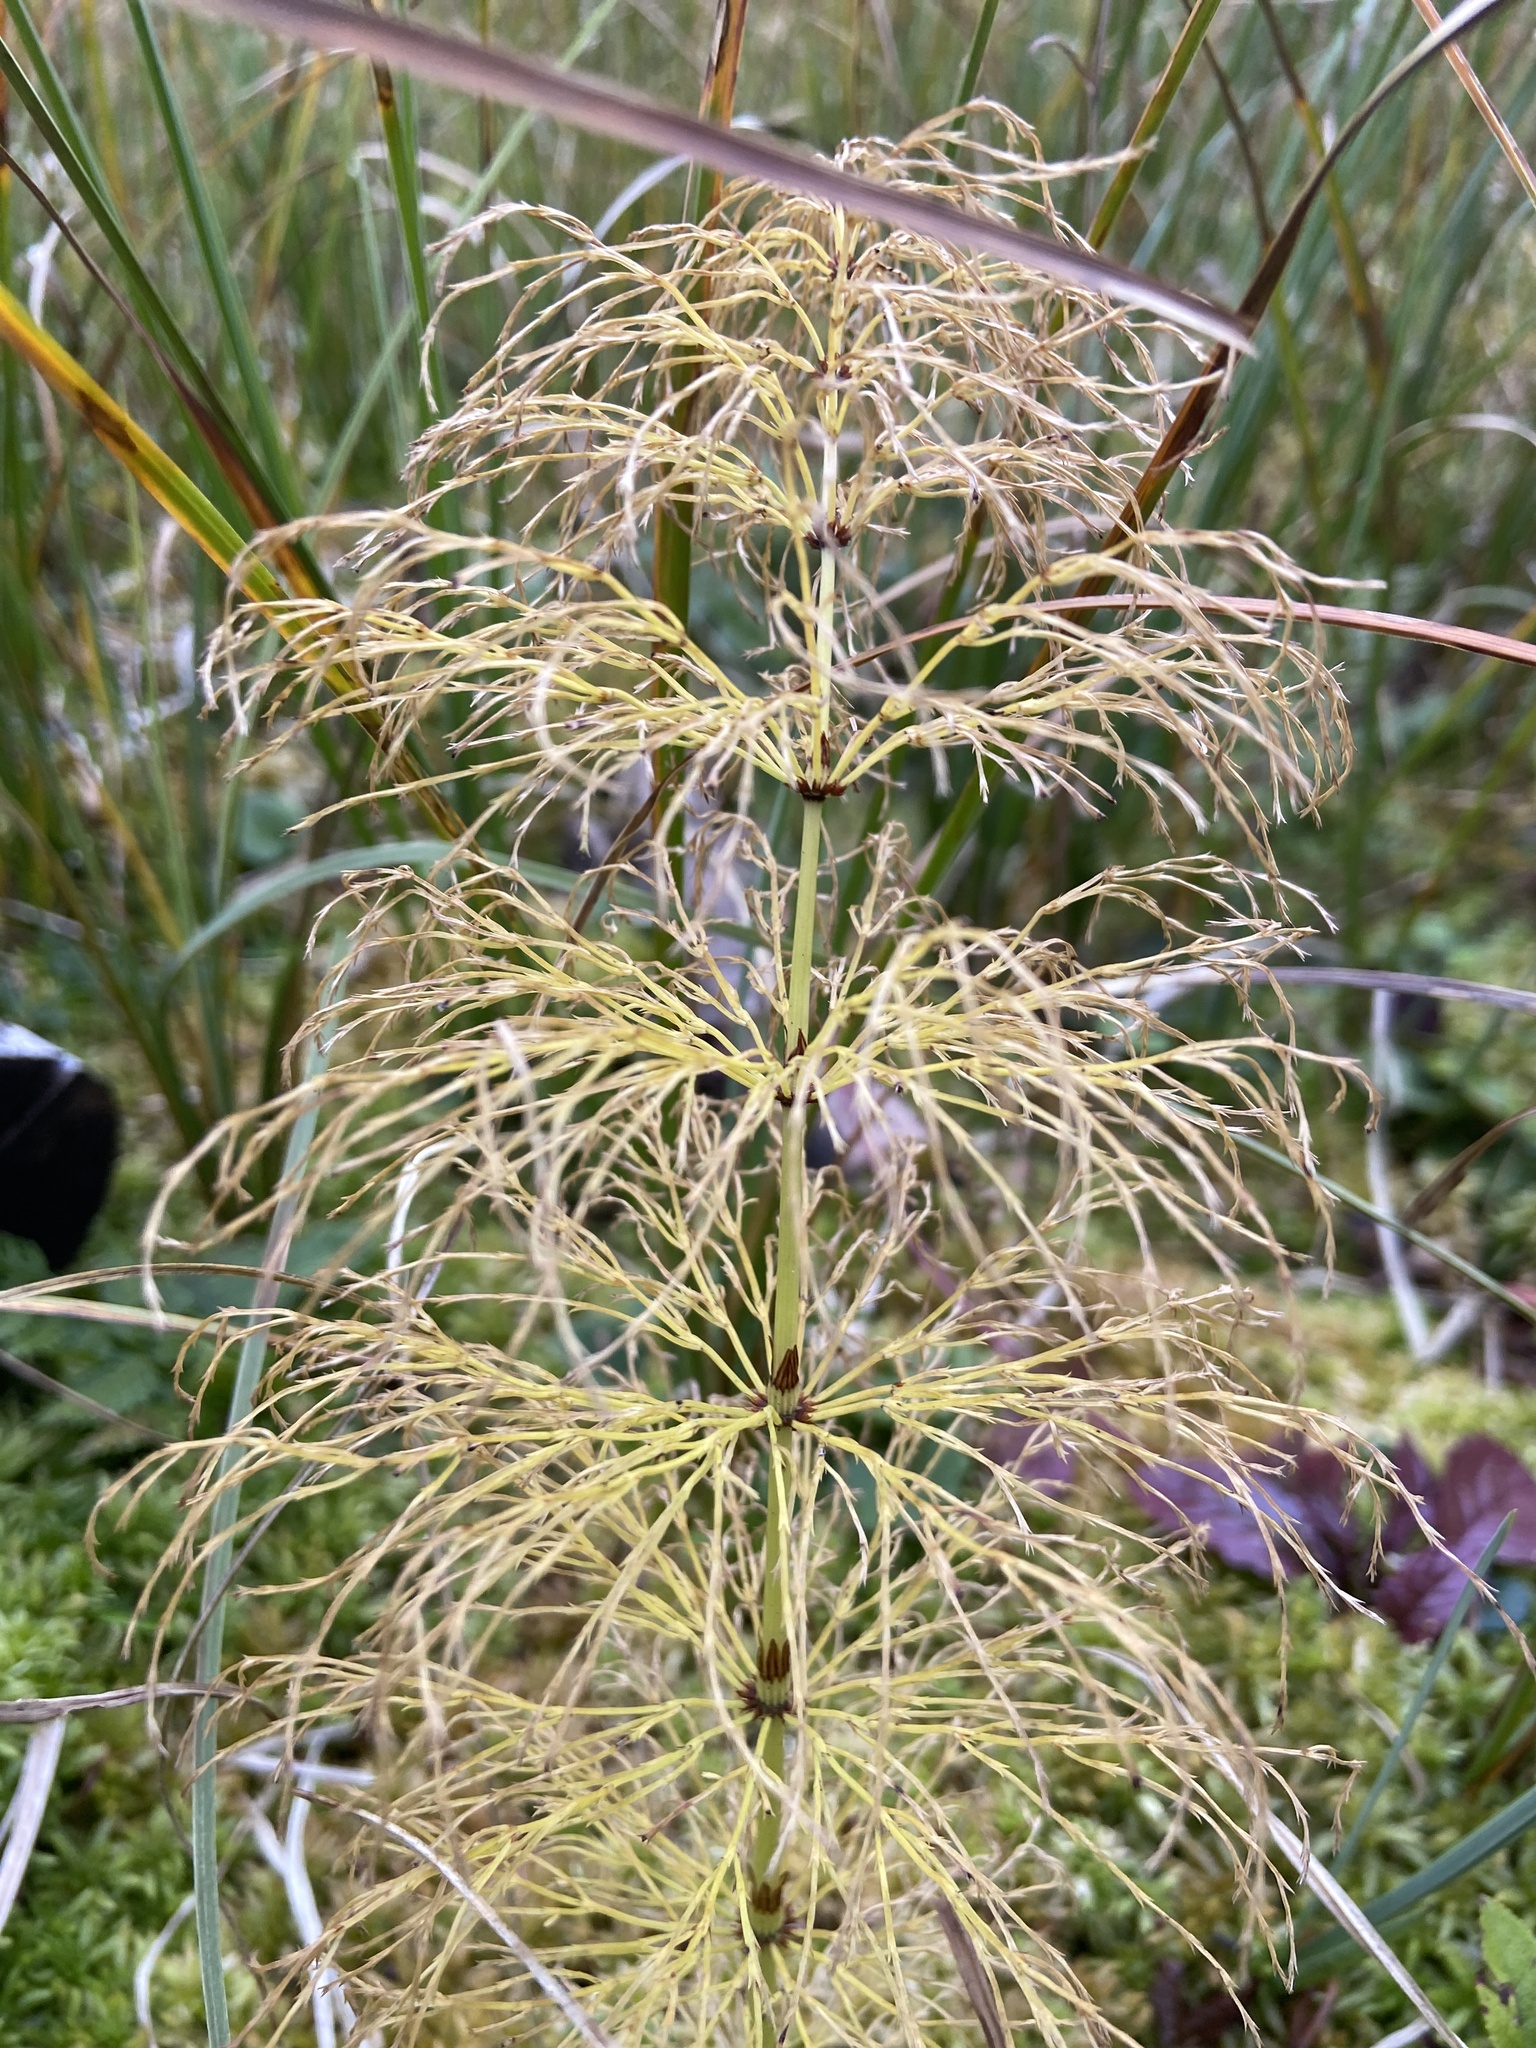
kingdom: Plantae
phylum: Tracheophyta
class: Polypodiopsida
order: Equisetales
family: Equisetaceae
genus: Equisetum
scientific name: Equisetum sylvaticum
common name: Wood horsetail
